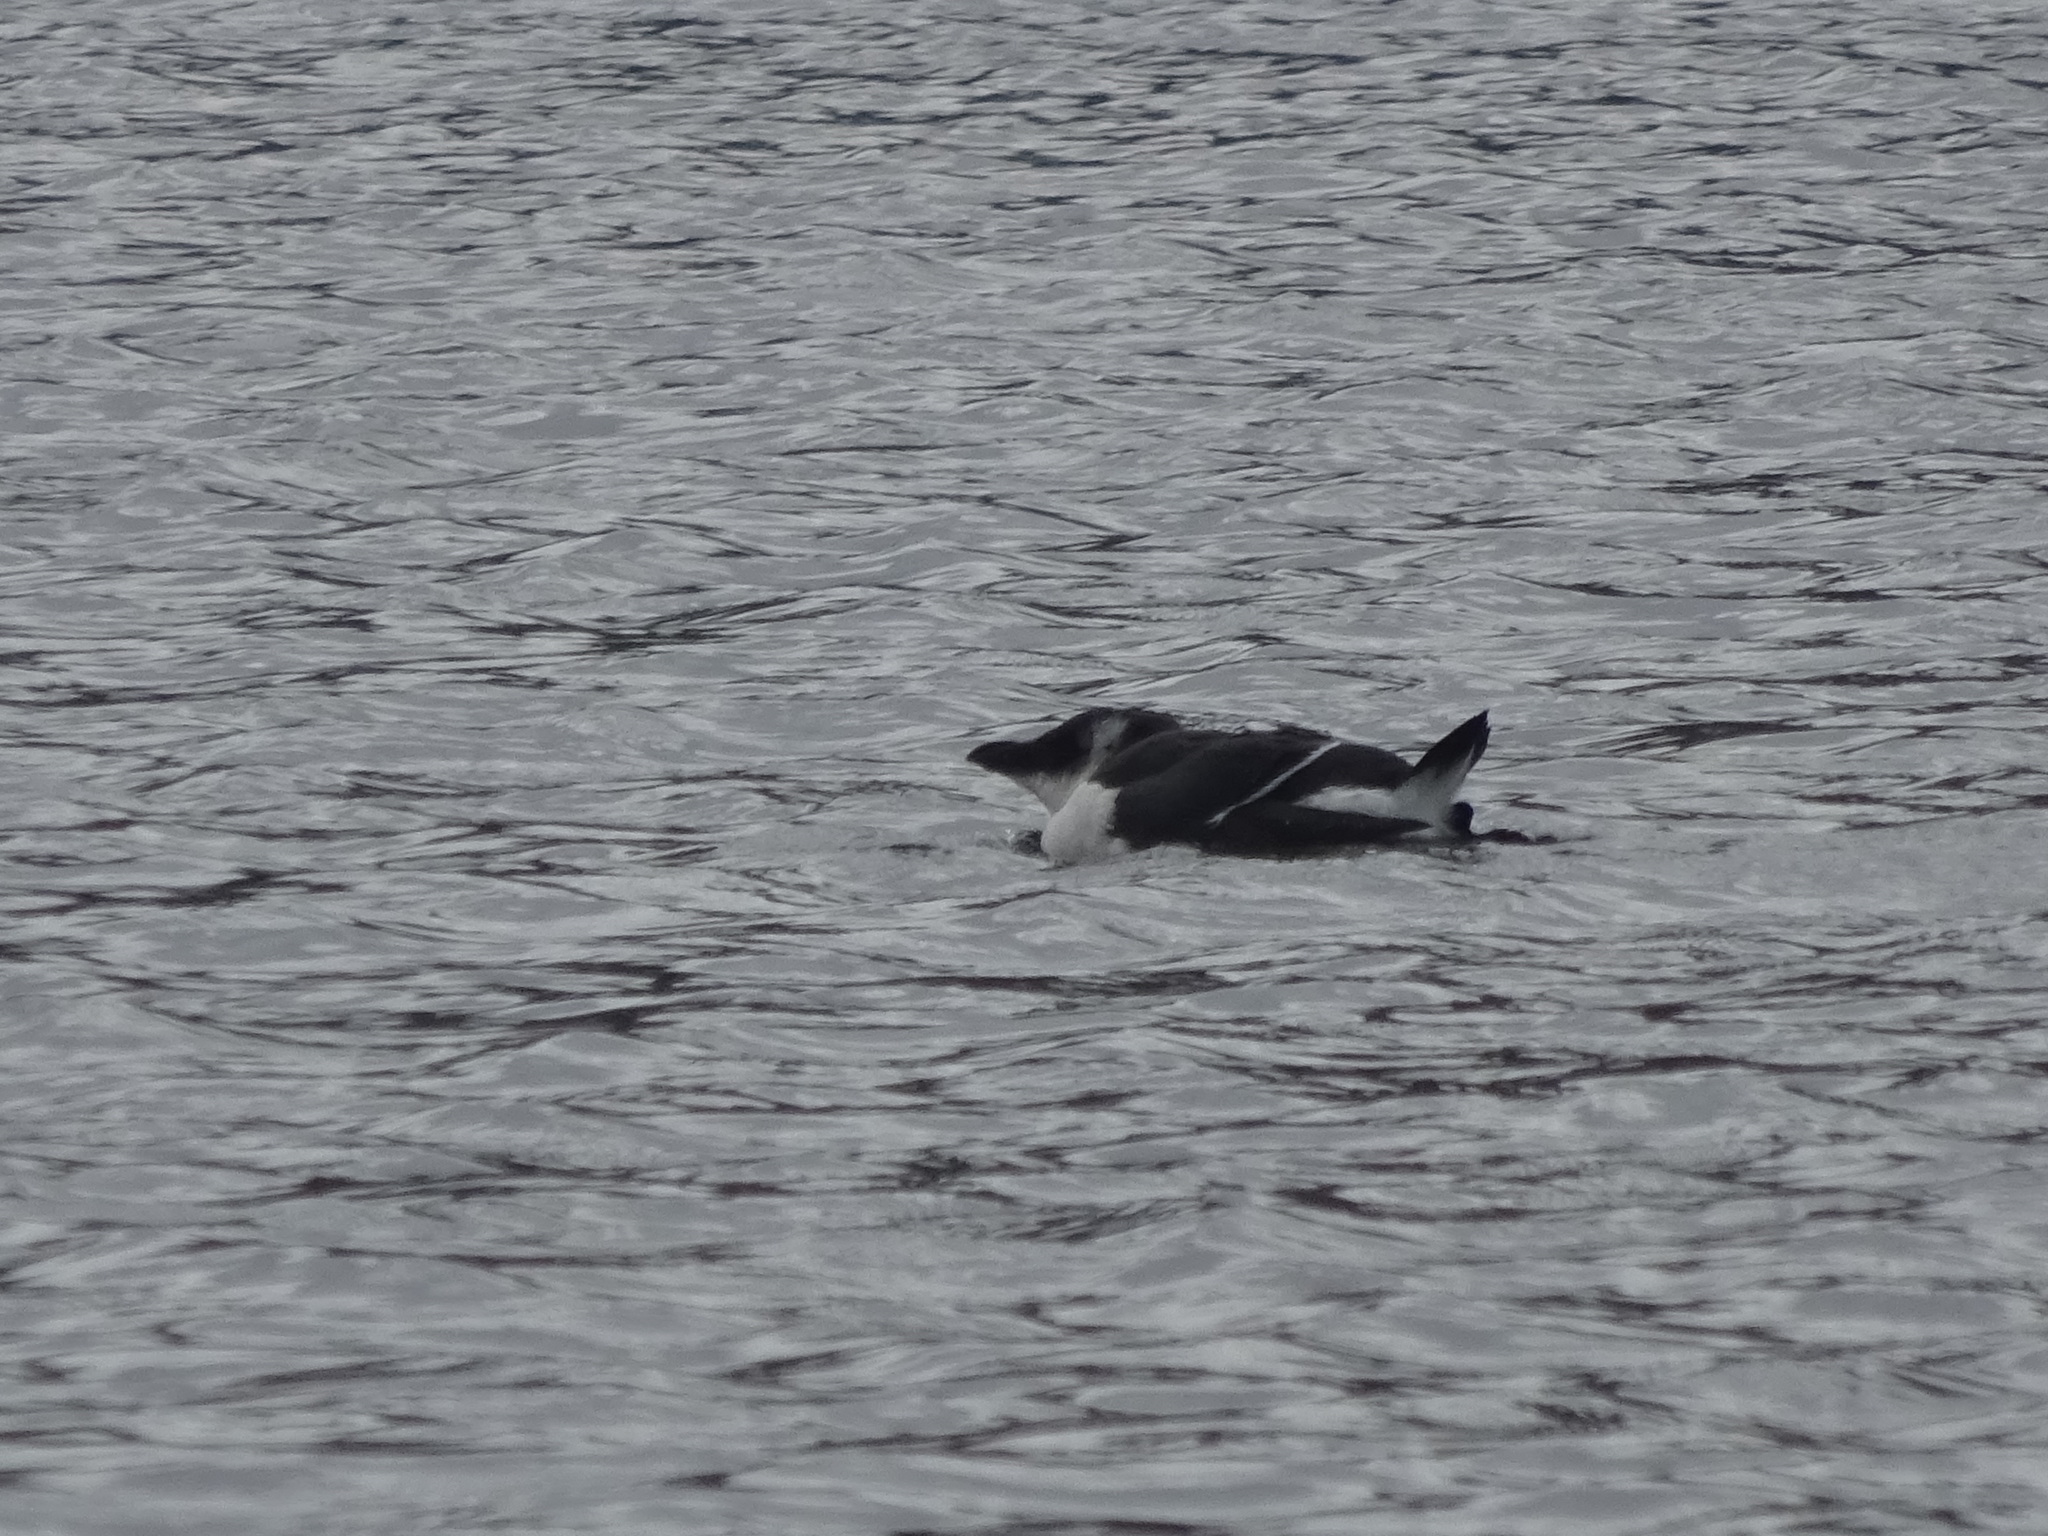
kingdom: Animalia
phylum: Chordata
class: Aves
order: Charadriiformes
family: Alcidae
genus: Alca
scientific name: Alca torda
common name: Razorbill
